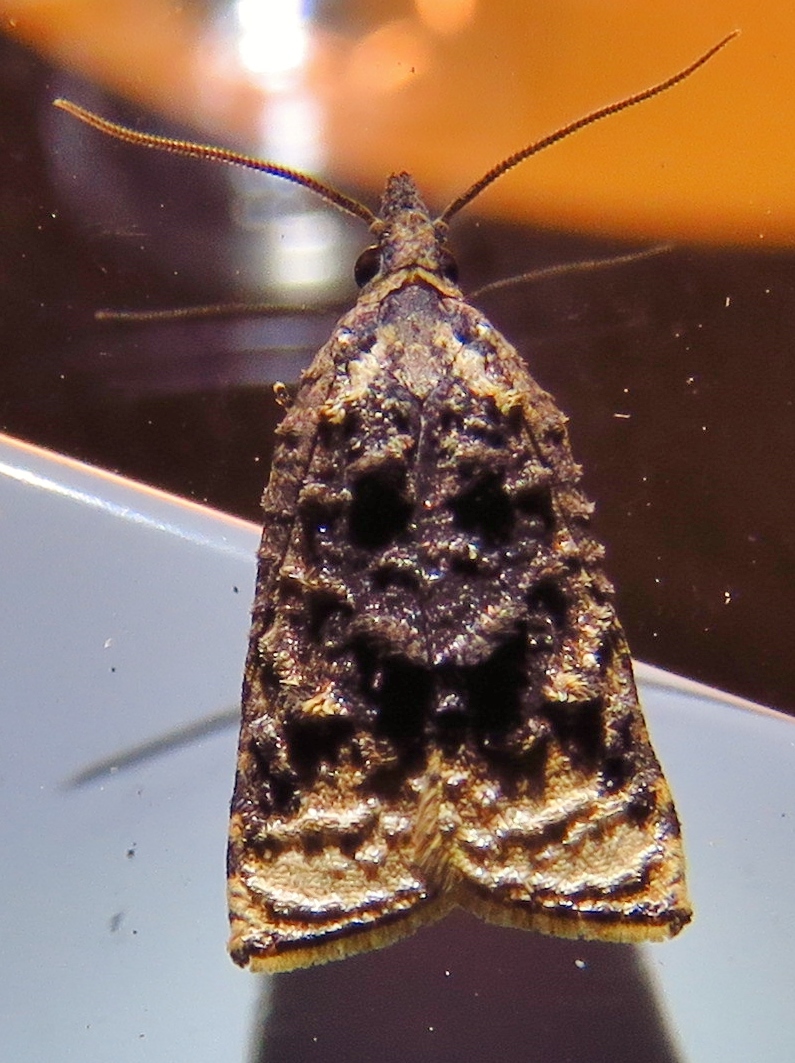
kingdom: Animalia
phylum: Arthropoda
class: Insecta
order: Lepidoptera
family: Tortricidae
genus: Platynota
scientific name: Platynota flavedana
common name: Black-shaded platynota moth
